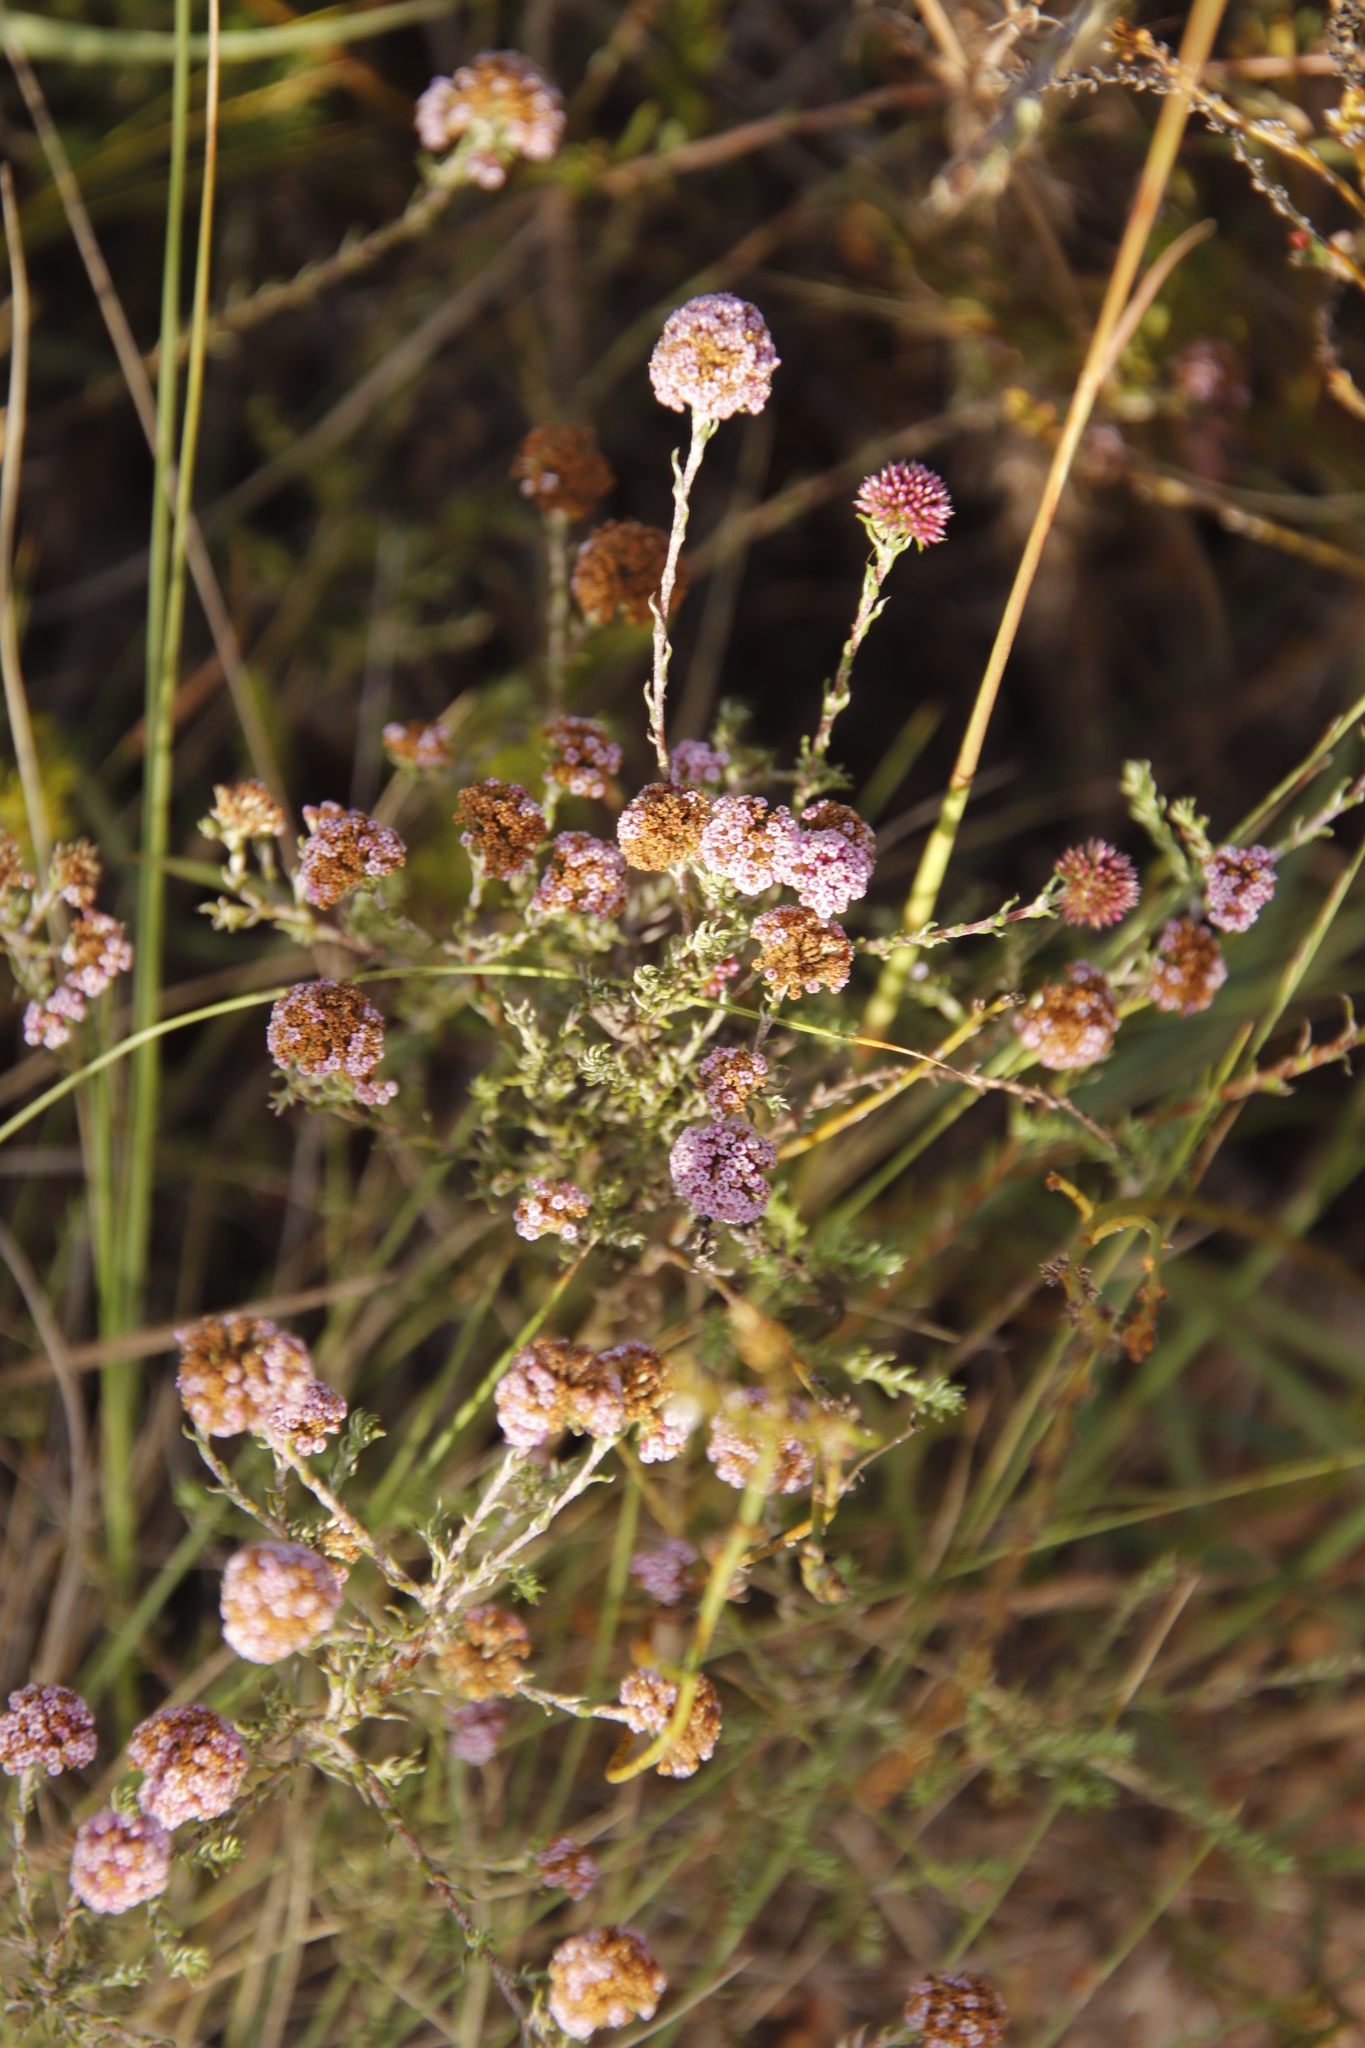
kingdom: Plantae
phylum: Tracheophyta
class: Magnoliopsida
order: Asterales
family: Asteraceae
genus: Stoebe
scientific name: Stoebe capitata
